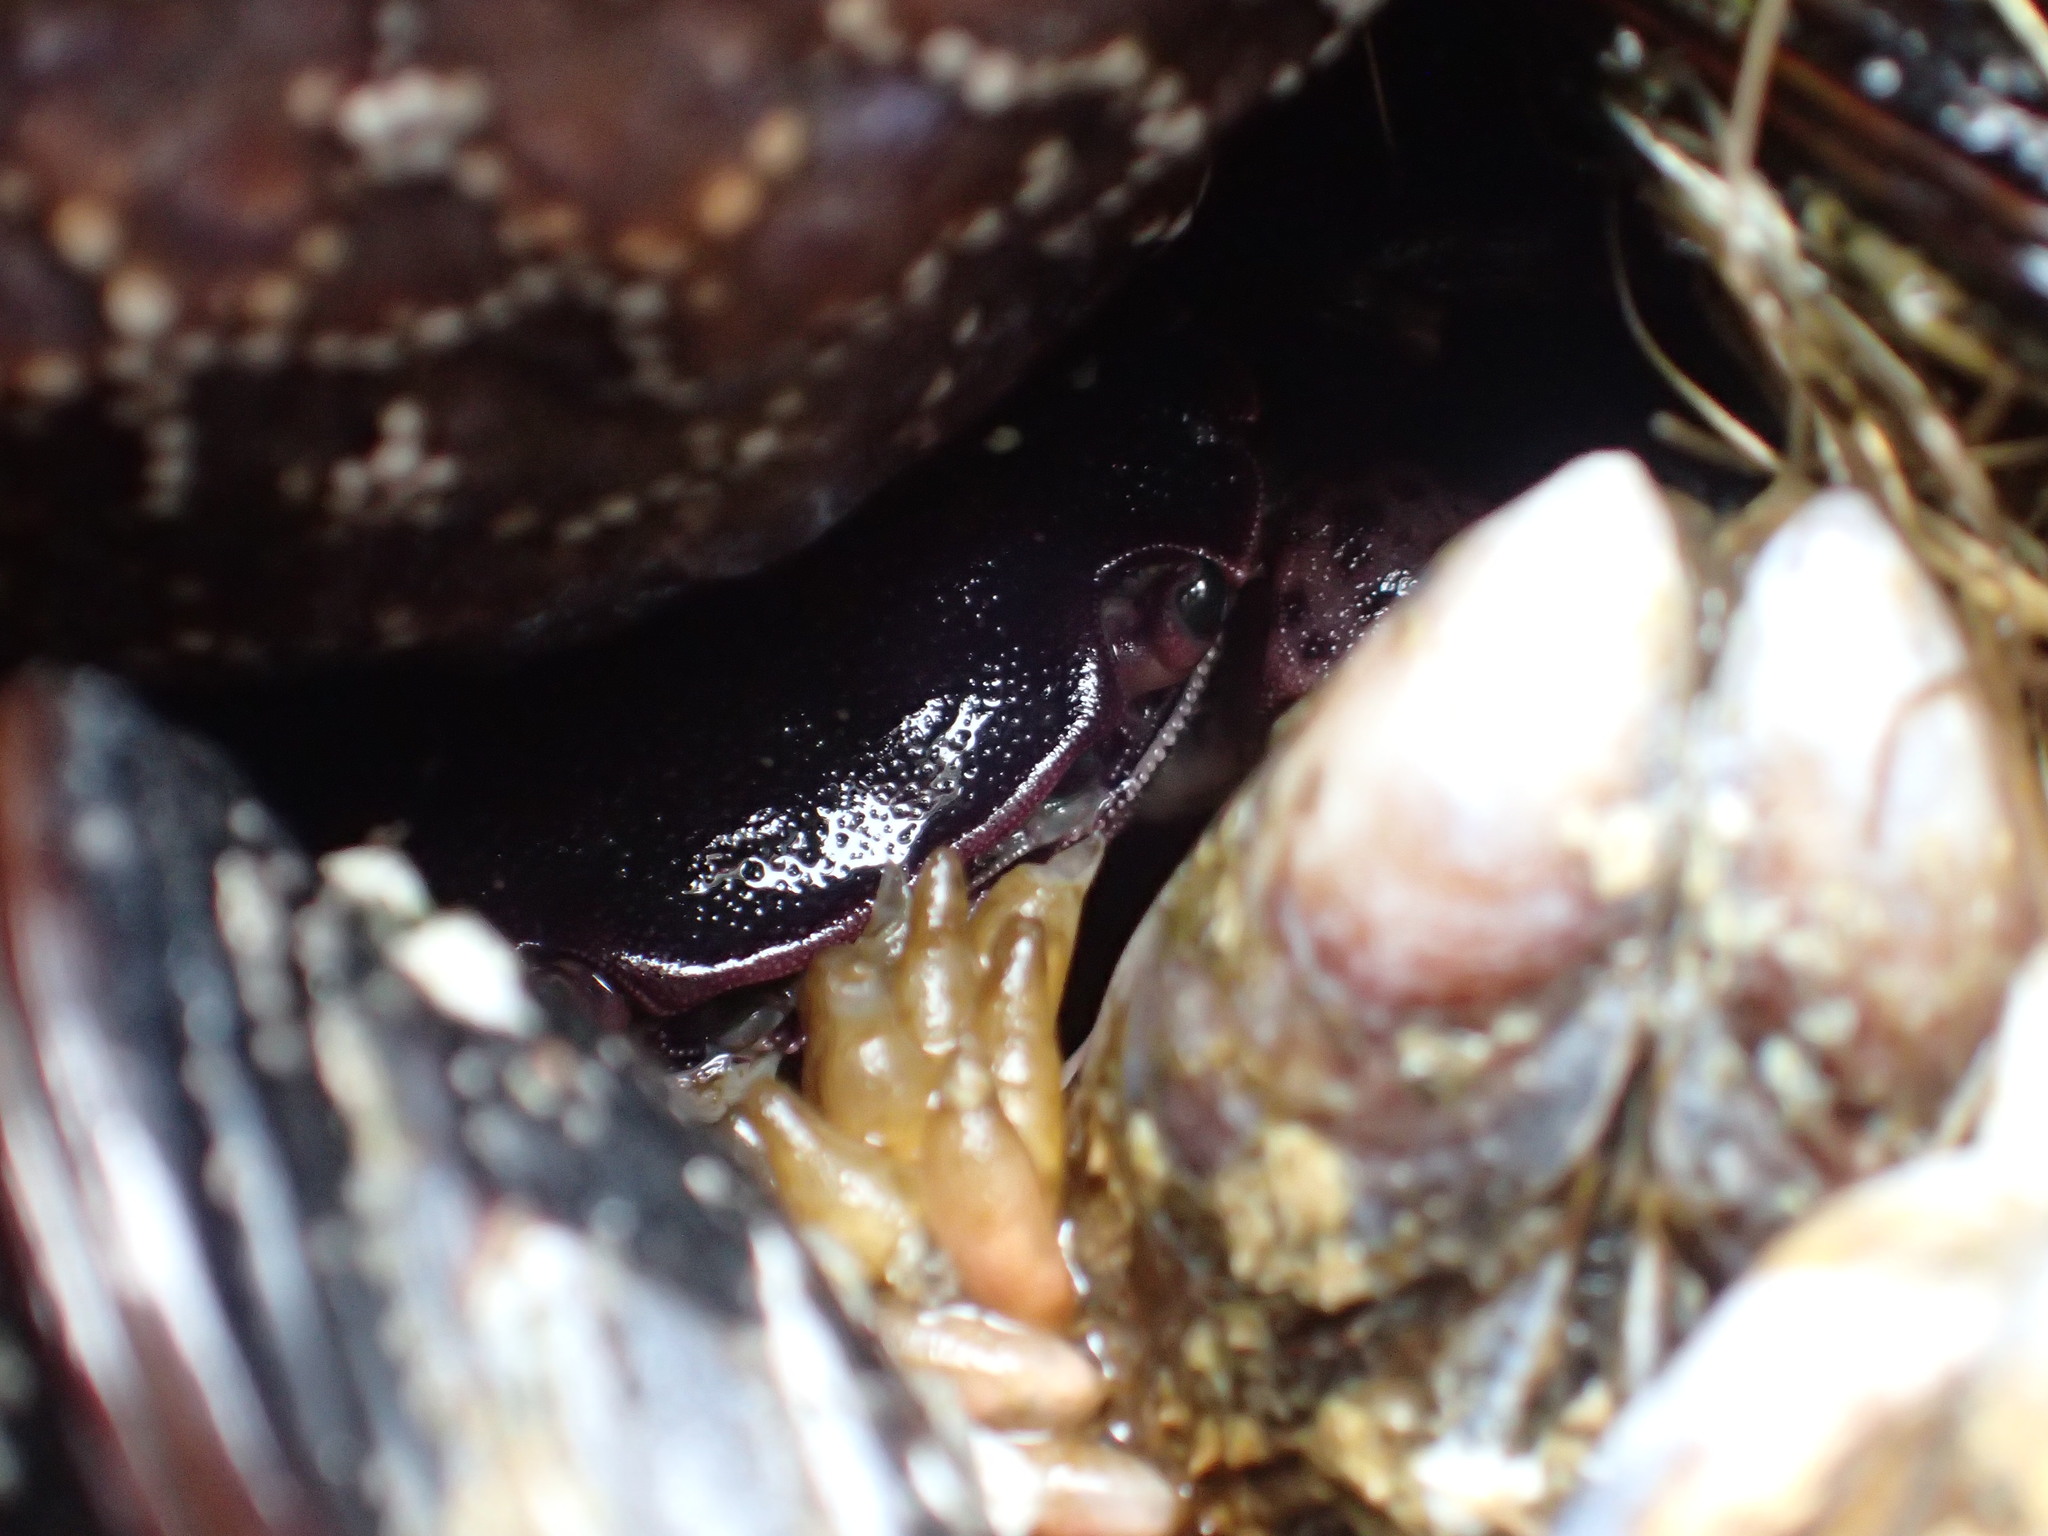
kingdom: Animalia
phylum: Arthropoda
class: Malacostraca
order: Decapoda
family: Varunidae
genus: Hemigrapsus
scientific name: Hemigrapsus nudus
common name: Purple shore crab
